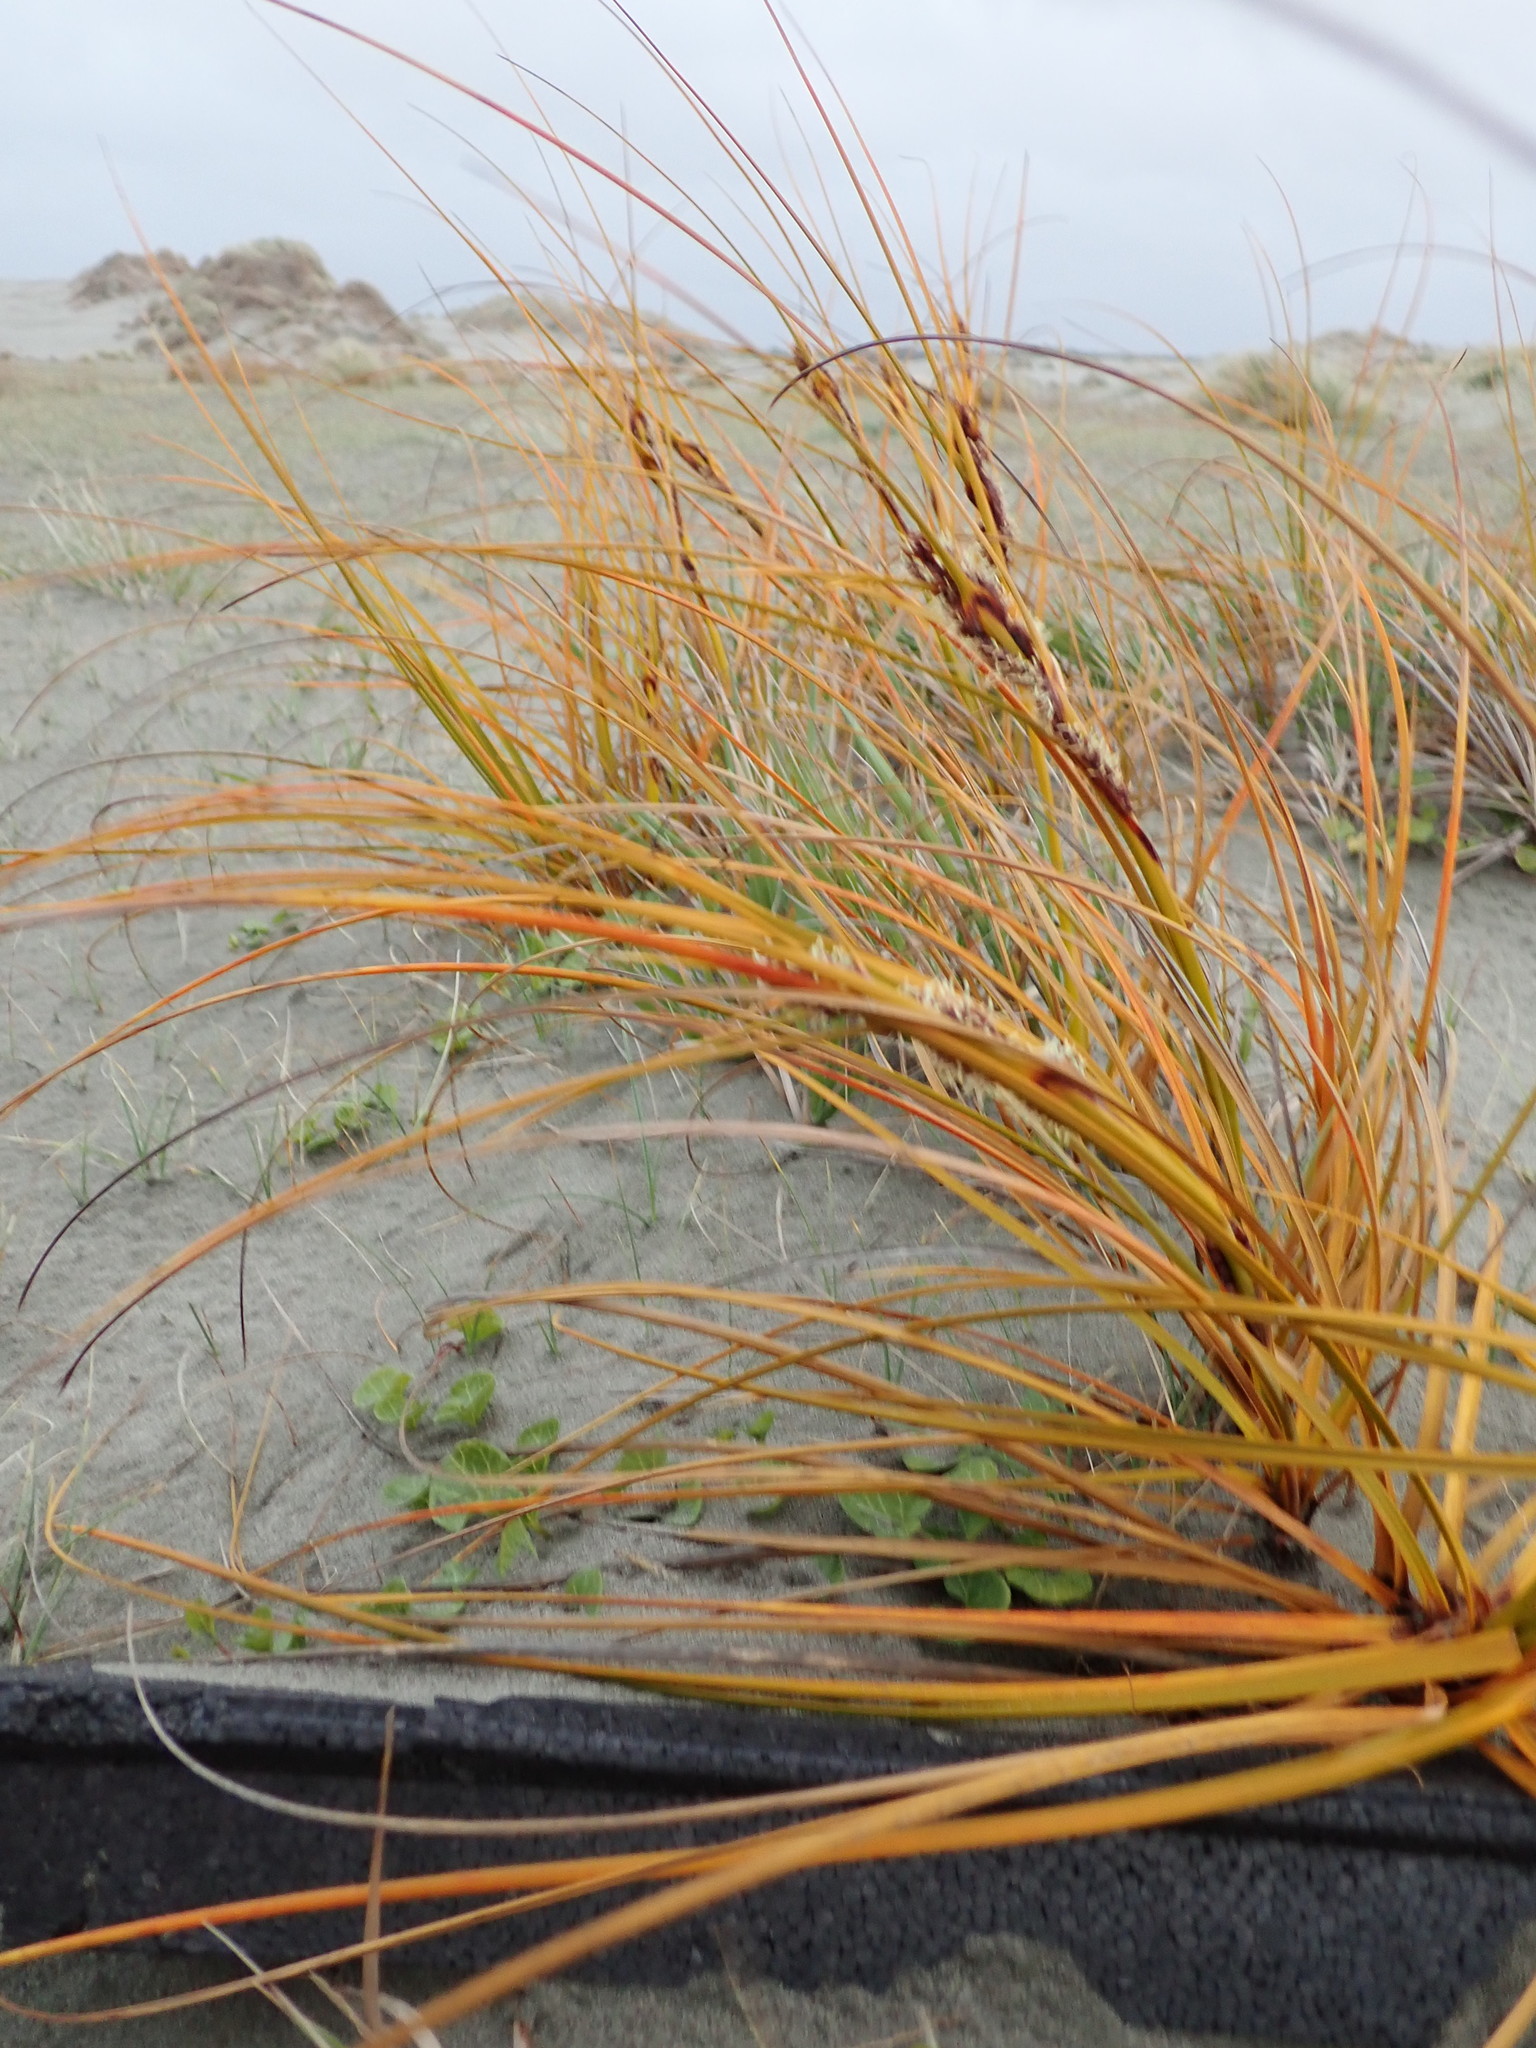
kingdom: Plantae
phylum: Tracheophyta
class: Liliopsida
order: Poales
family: Cyperaceae
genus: Ficinia
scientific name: Ficinia spiralis
